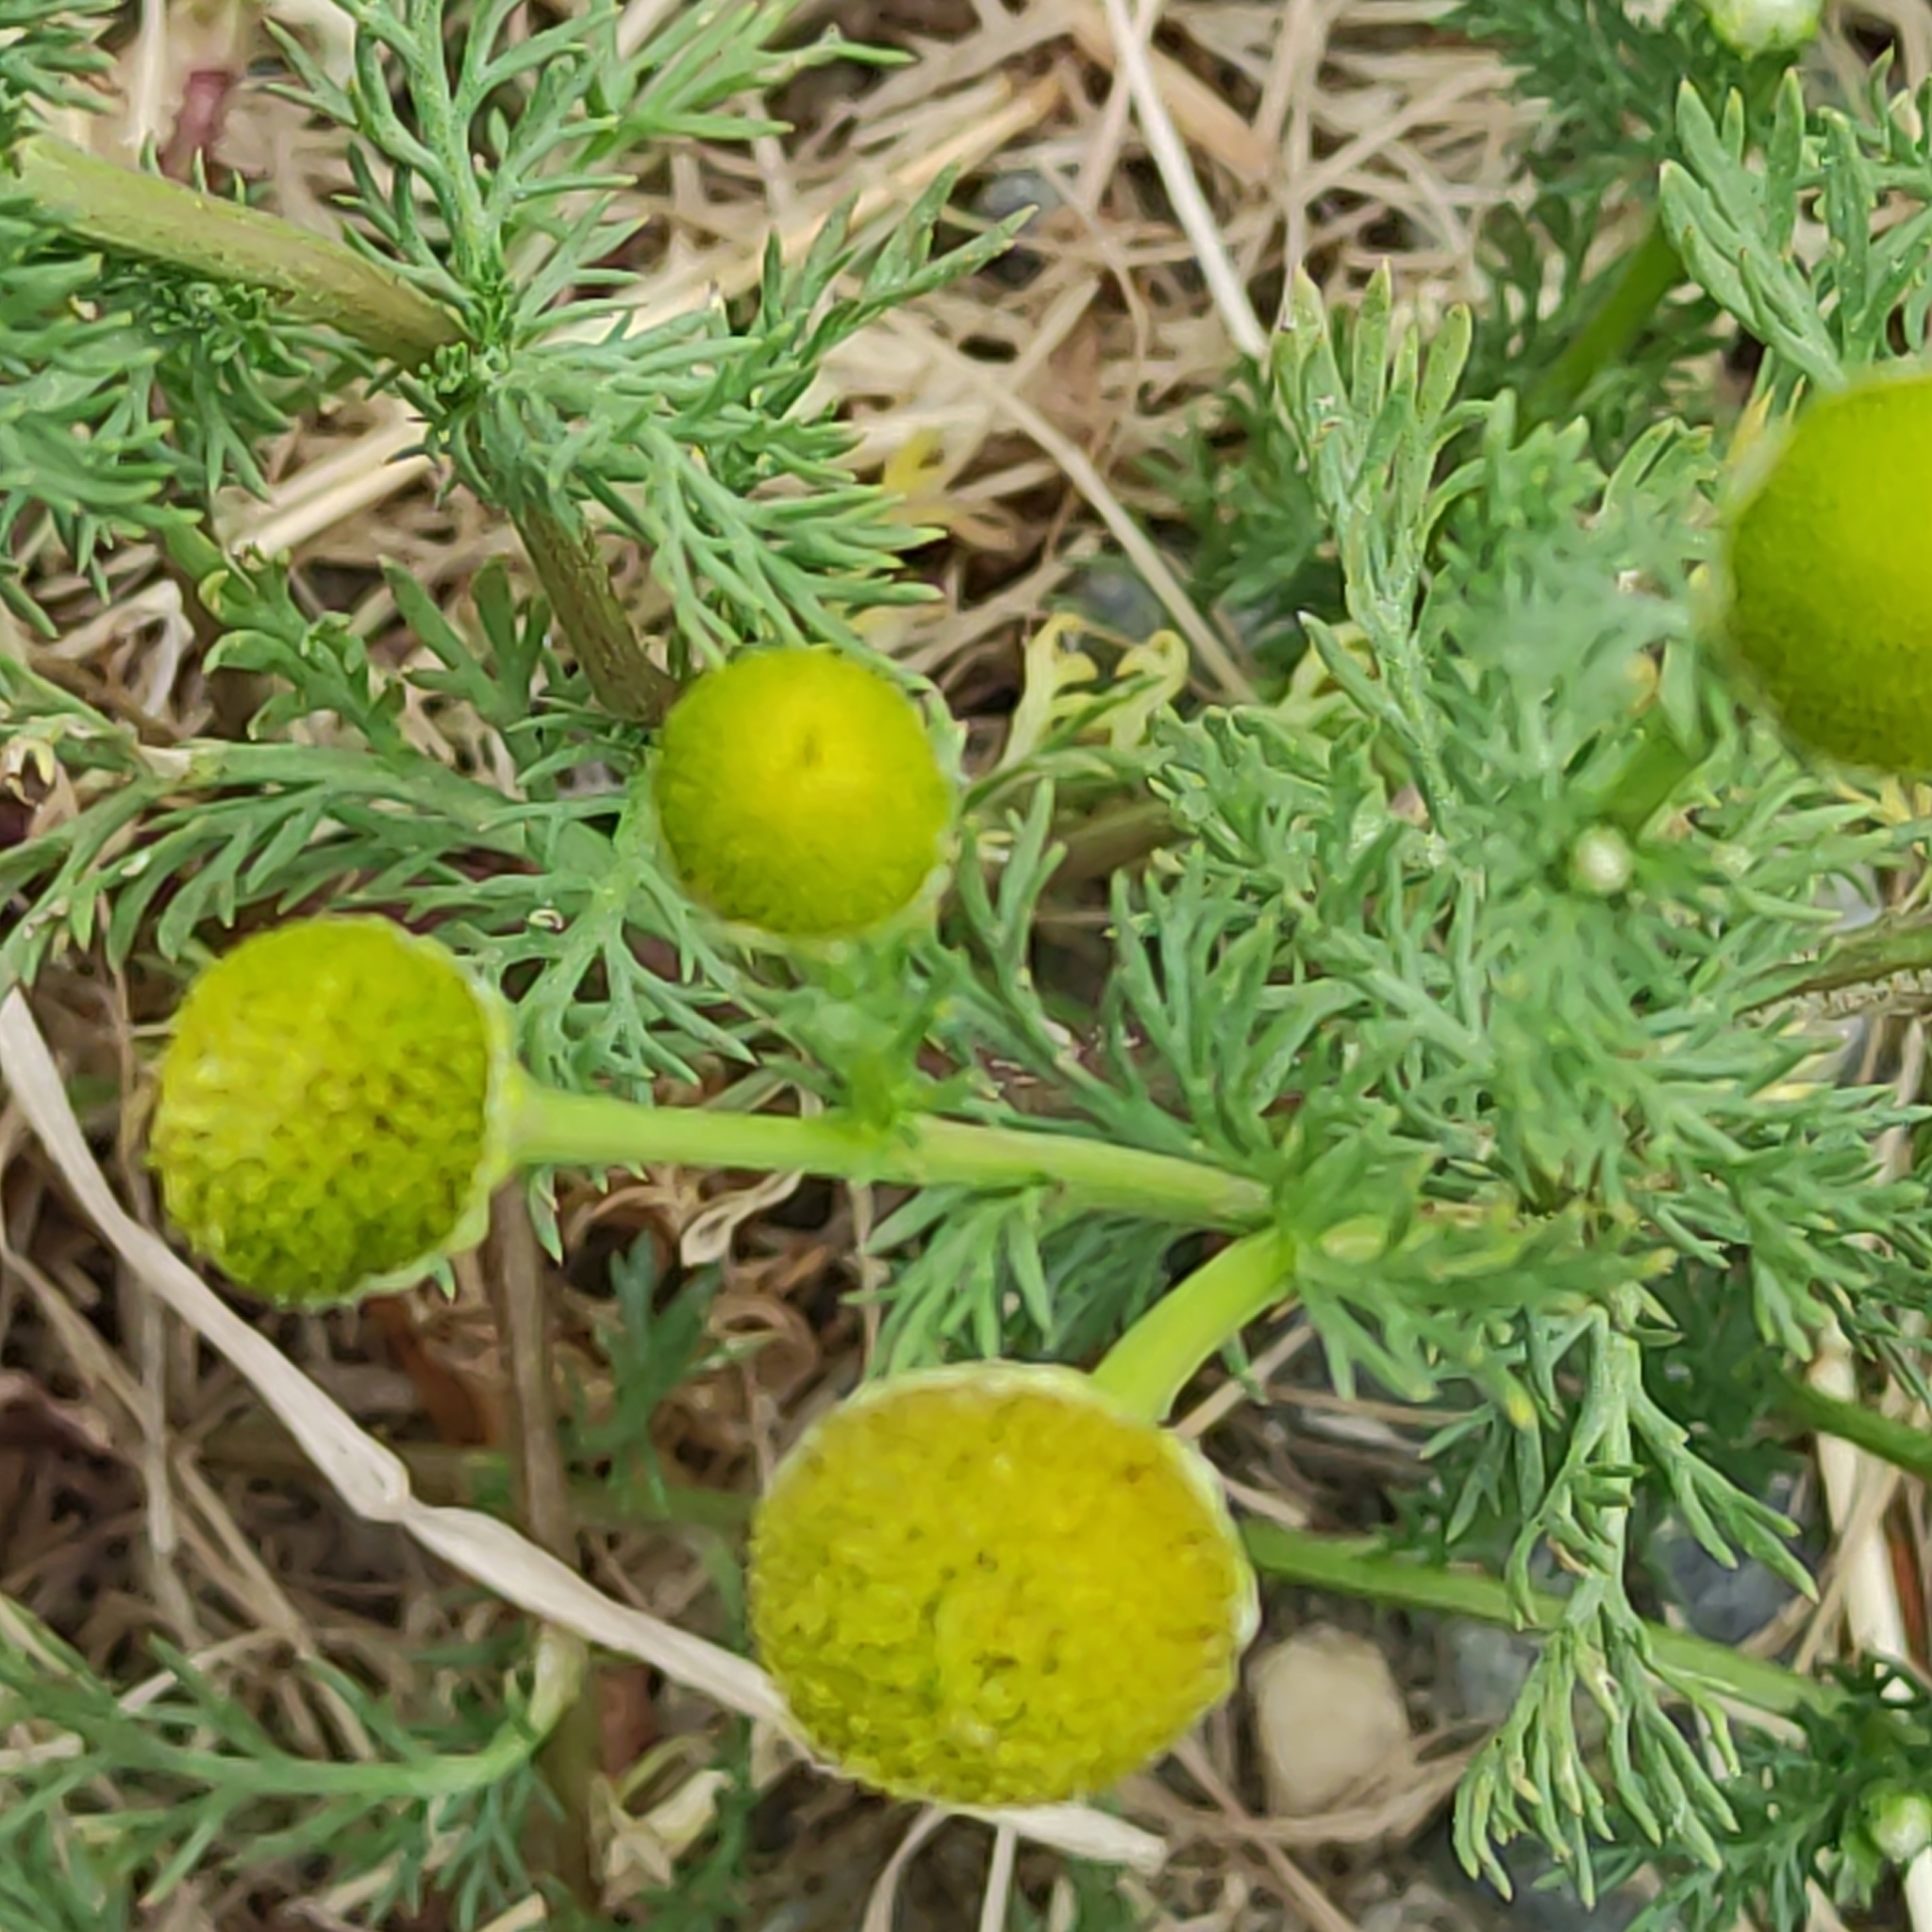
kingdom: Plantae
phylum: Tracheophyta
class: Magnoliopsida
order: Asterales
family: Asteraceae
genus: Matricaria
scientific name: Matricaria discoidea
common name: Disc mayweed
